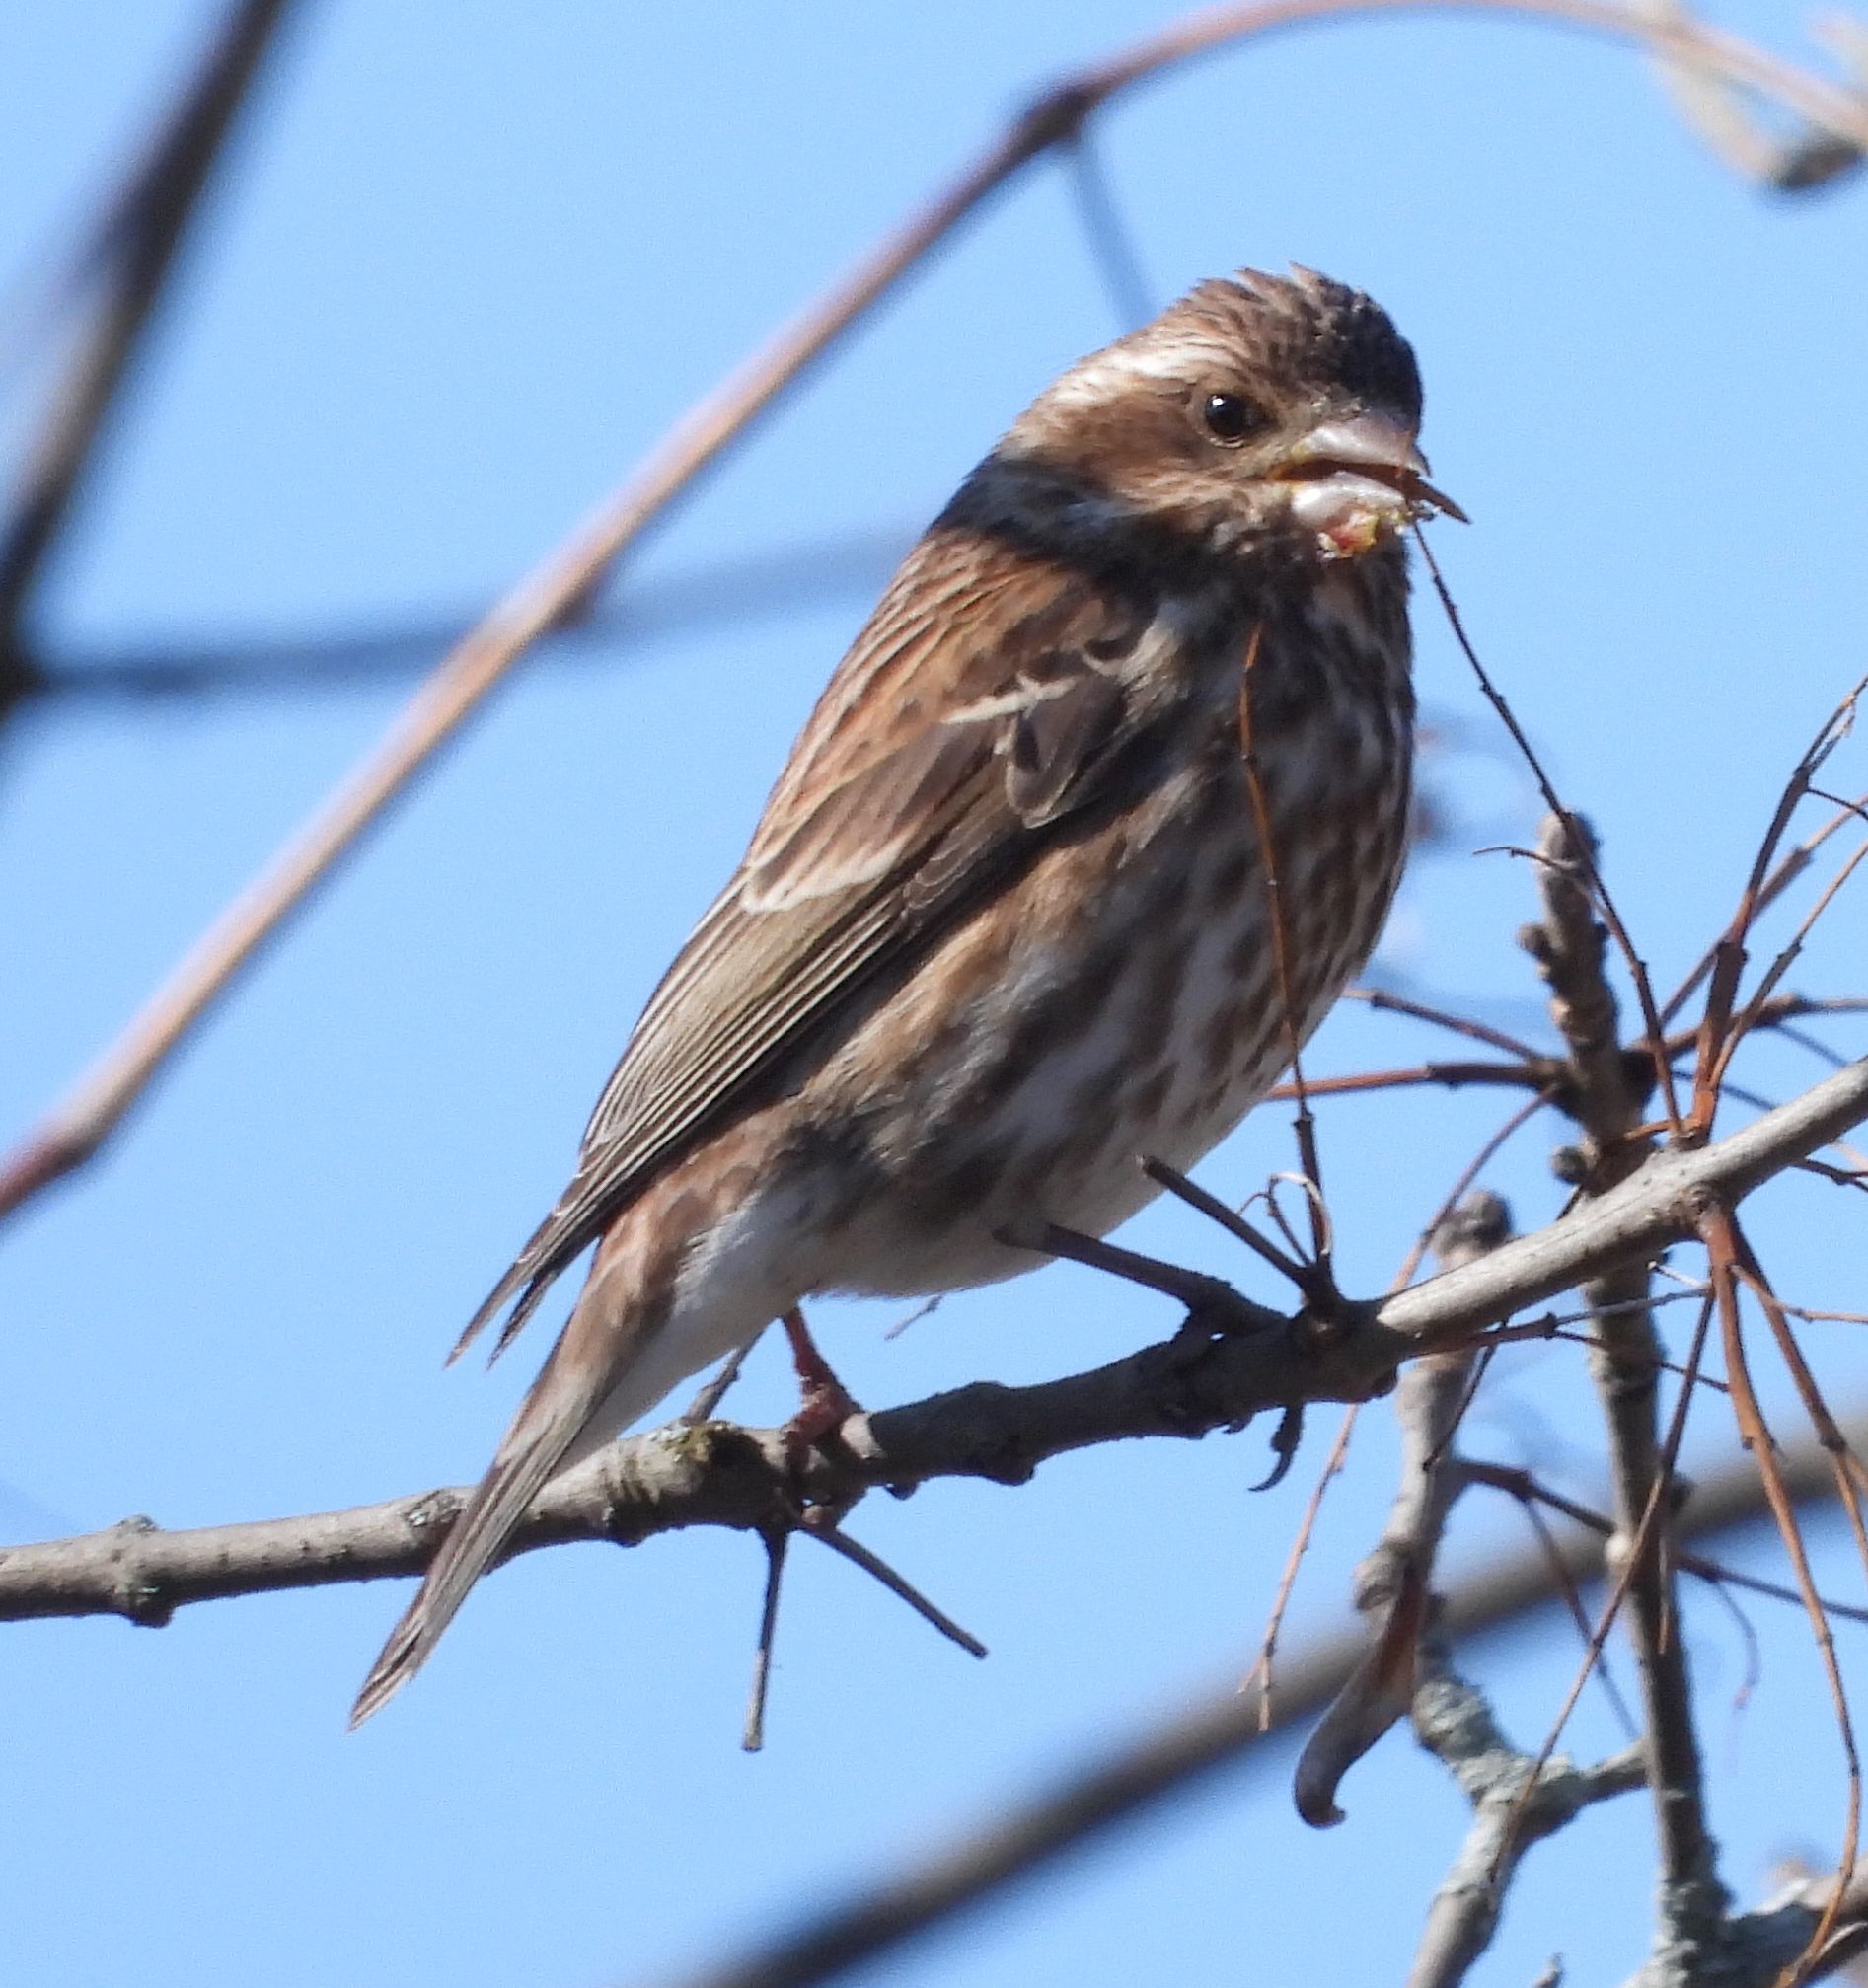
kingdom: Animalia
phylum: Chordata
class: Aves
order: Passeriformes
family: Fringillidae
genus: Haemorhous
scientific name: Haemorhous purpureus
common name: Purple finch
